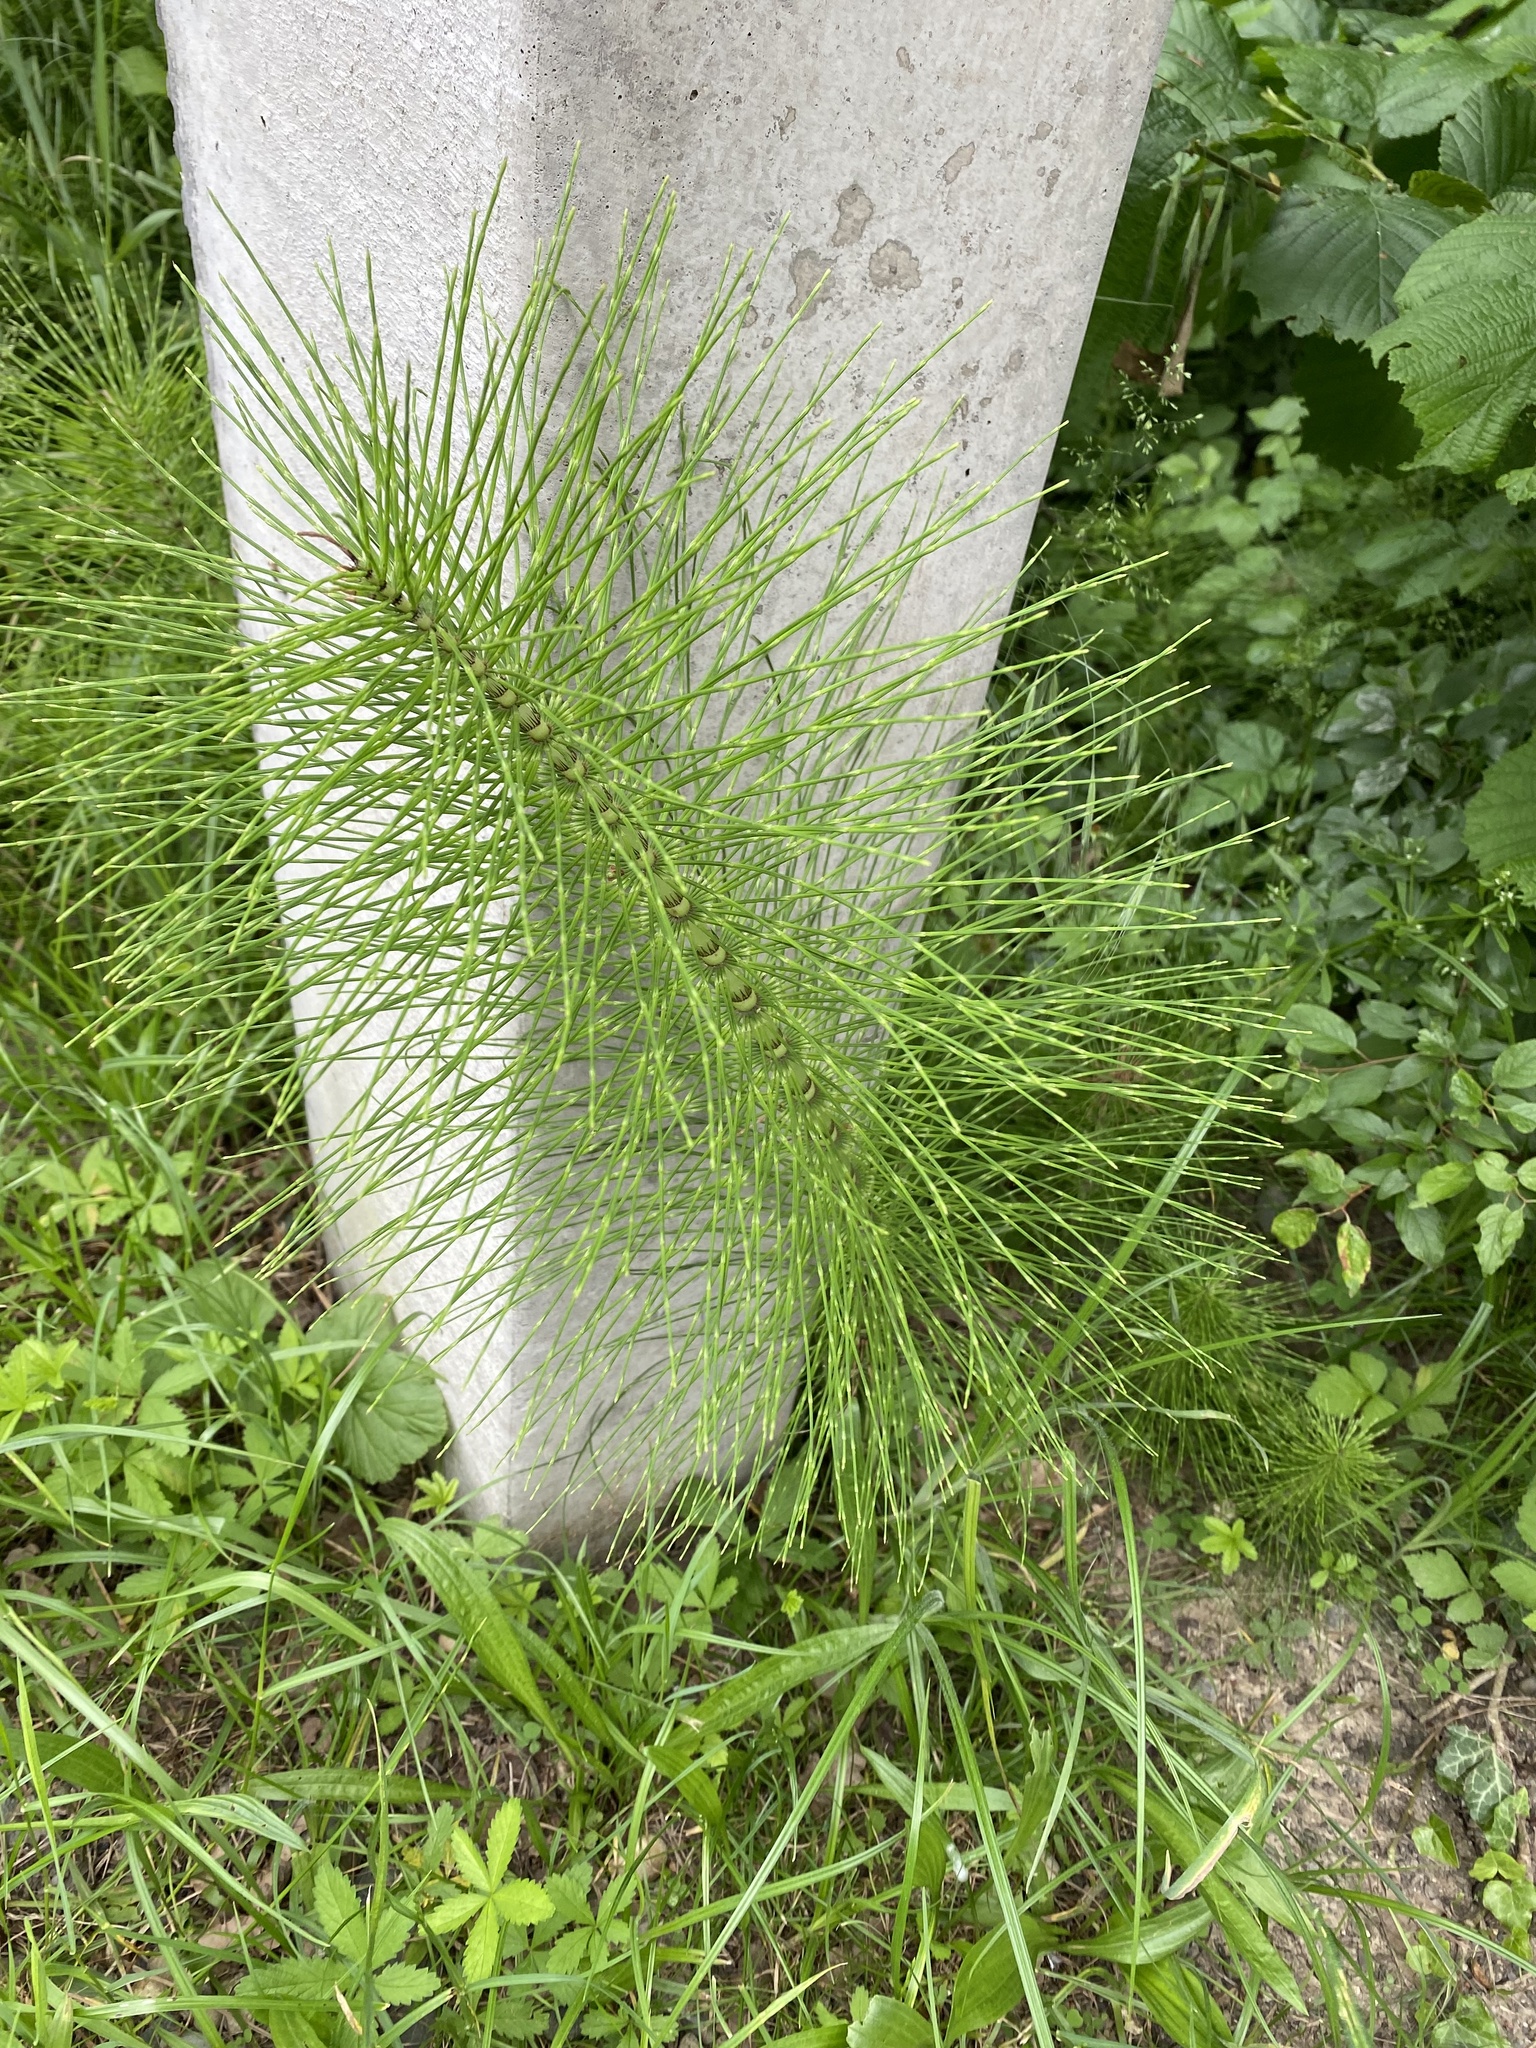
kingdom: Plantae
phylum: Tracheophyta
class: Polypodiopsida
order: Equisetales
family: Equisetaceae
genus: Equisetum
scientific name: Equisetum telmateia
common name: Great horsetail
